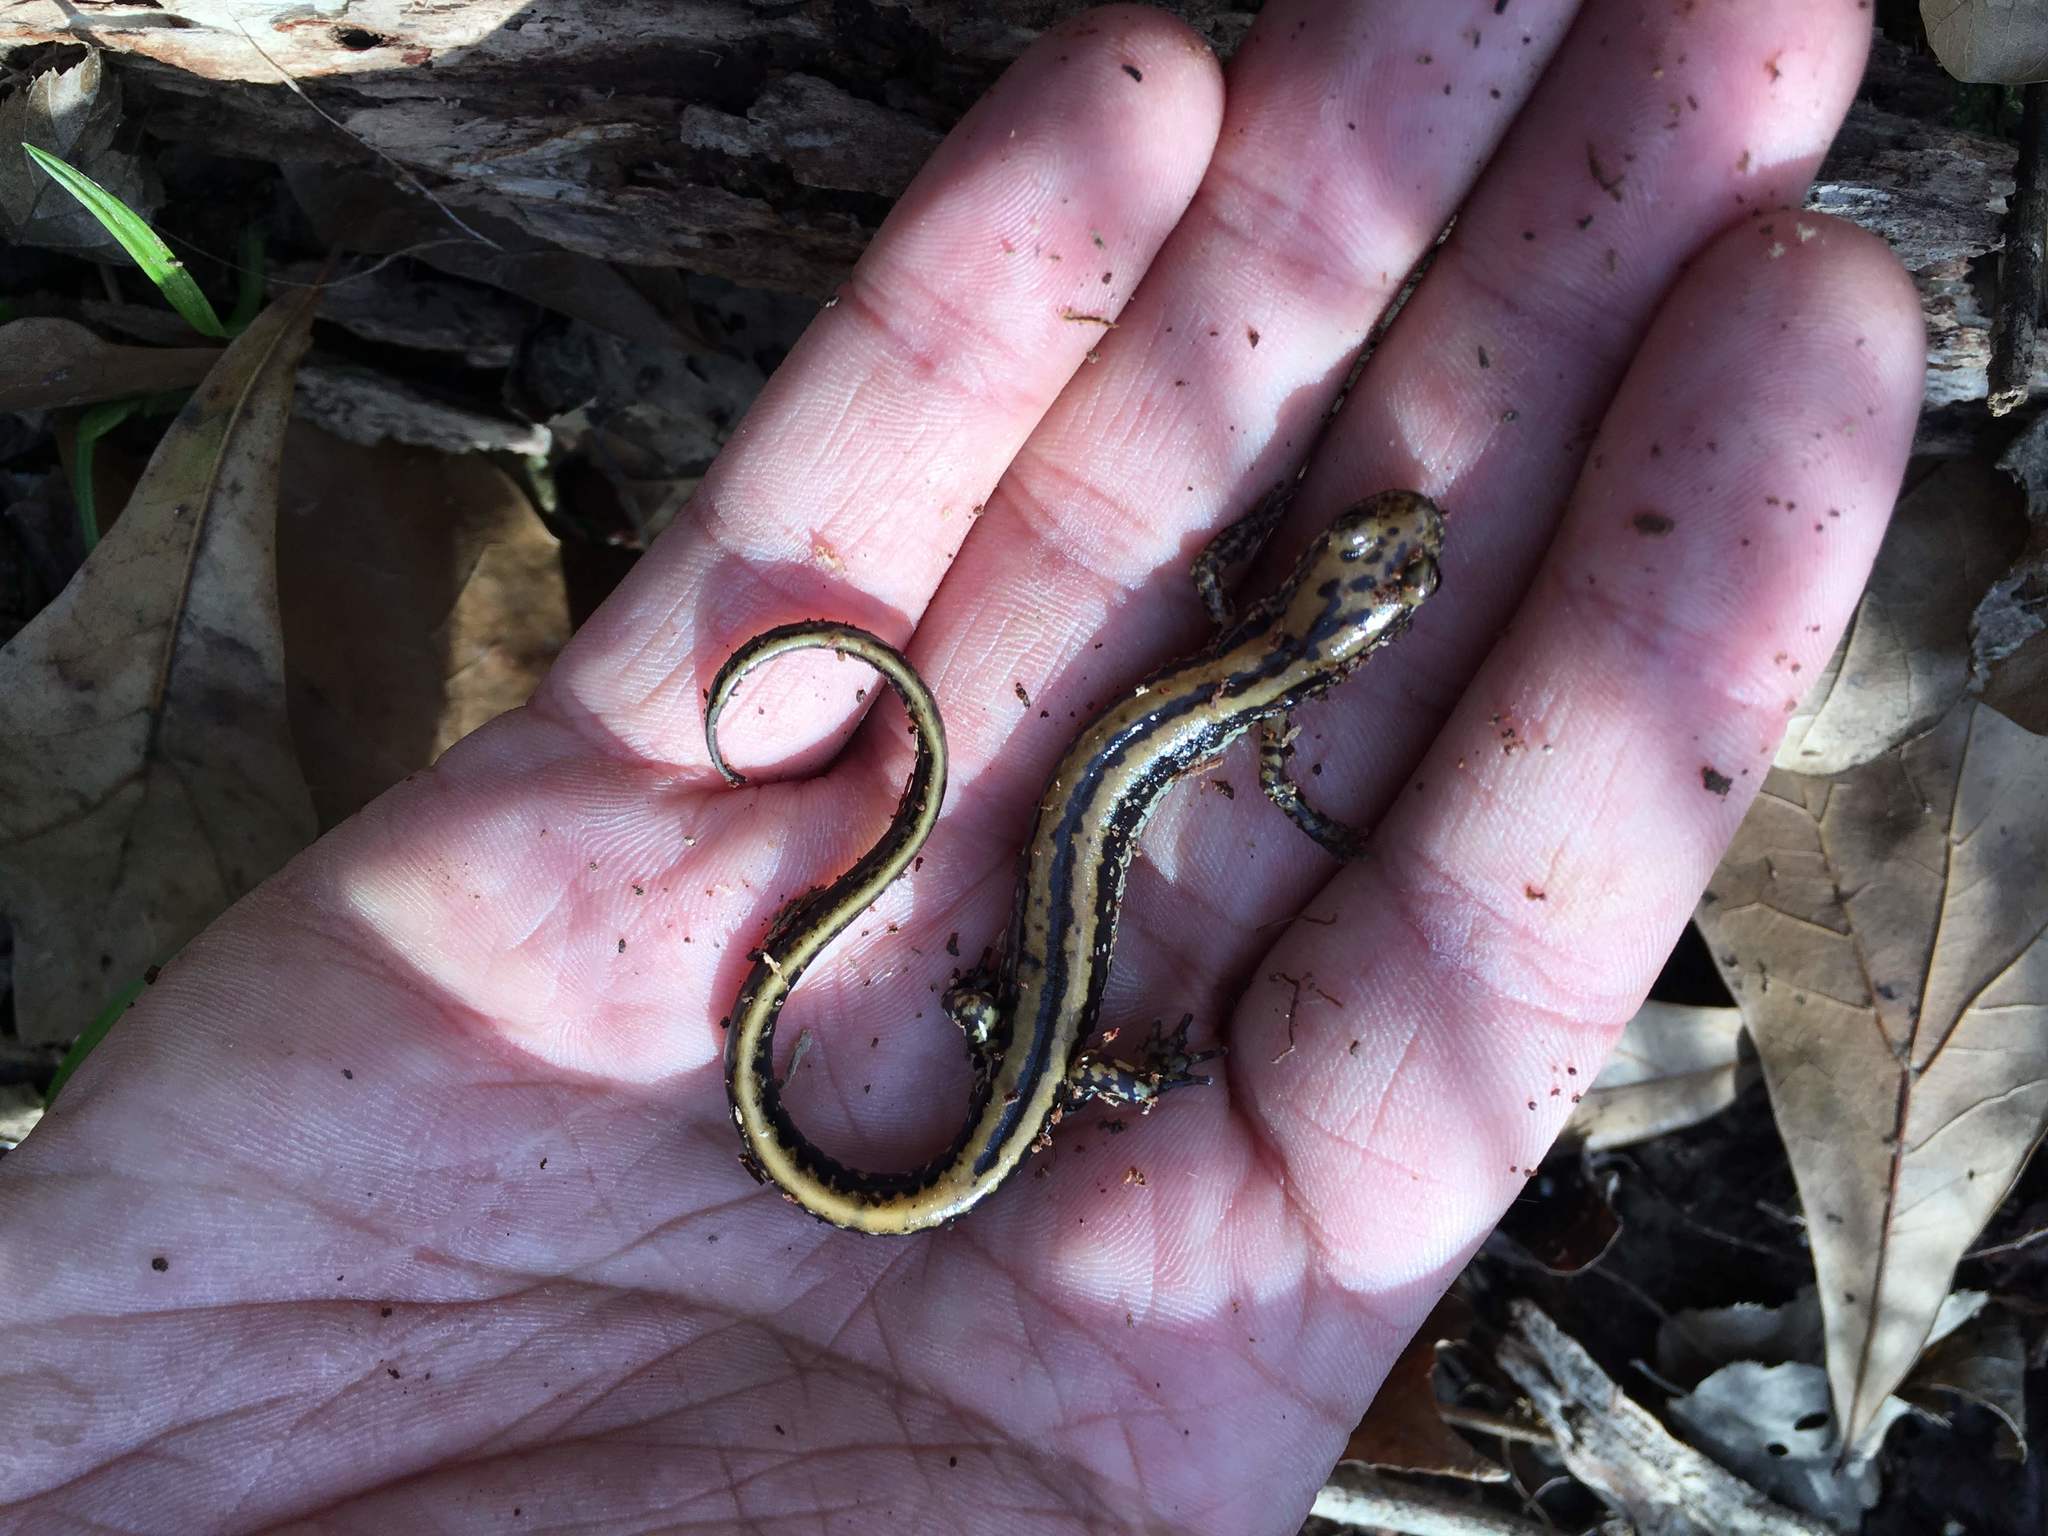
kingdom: Animalia
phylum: Chordata
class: Amphibia
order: Caudata
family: Plethodontidae
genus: Eurycea
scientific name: Eurycea guttolineata
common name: Three-lined salamander
